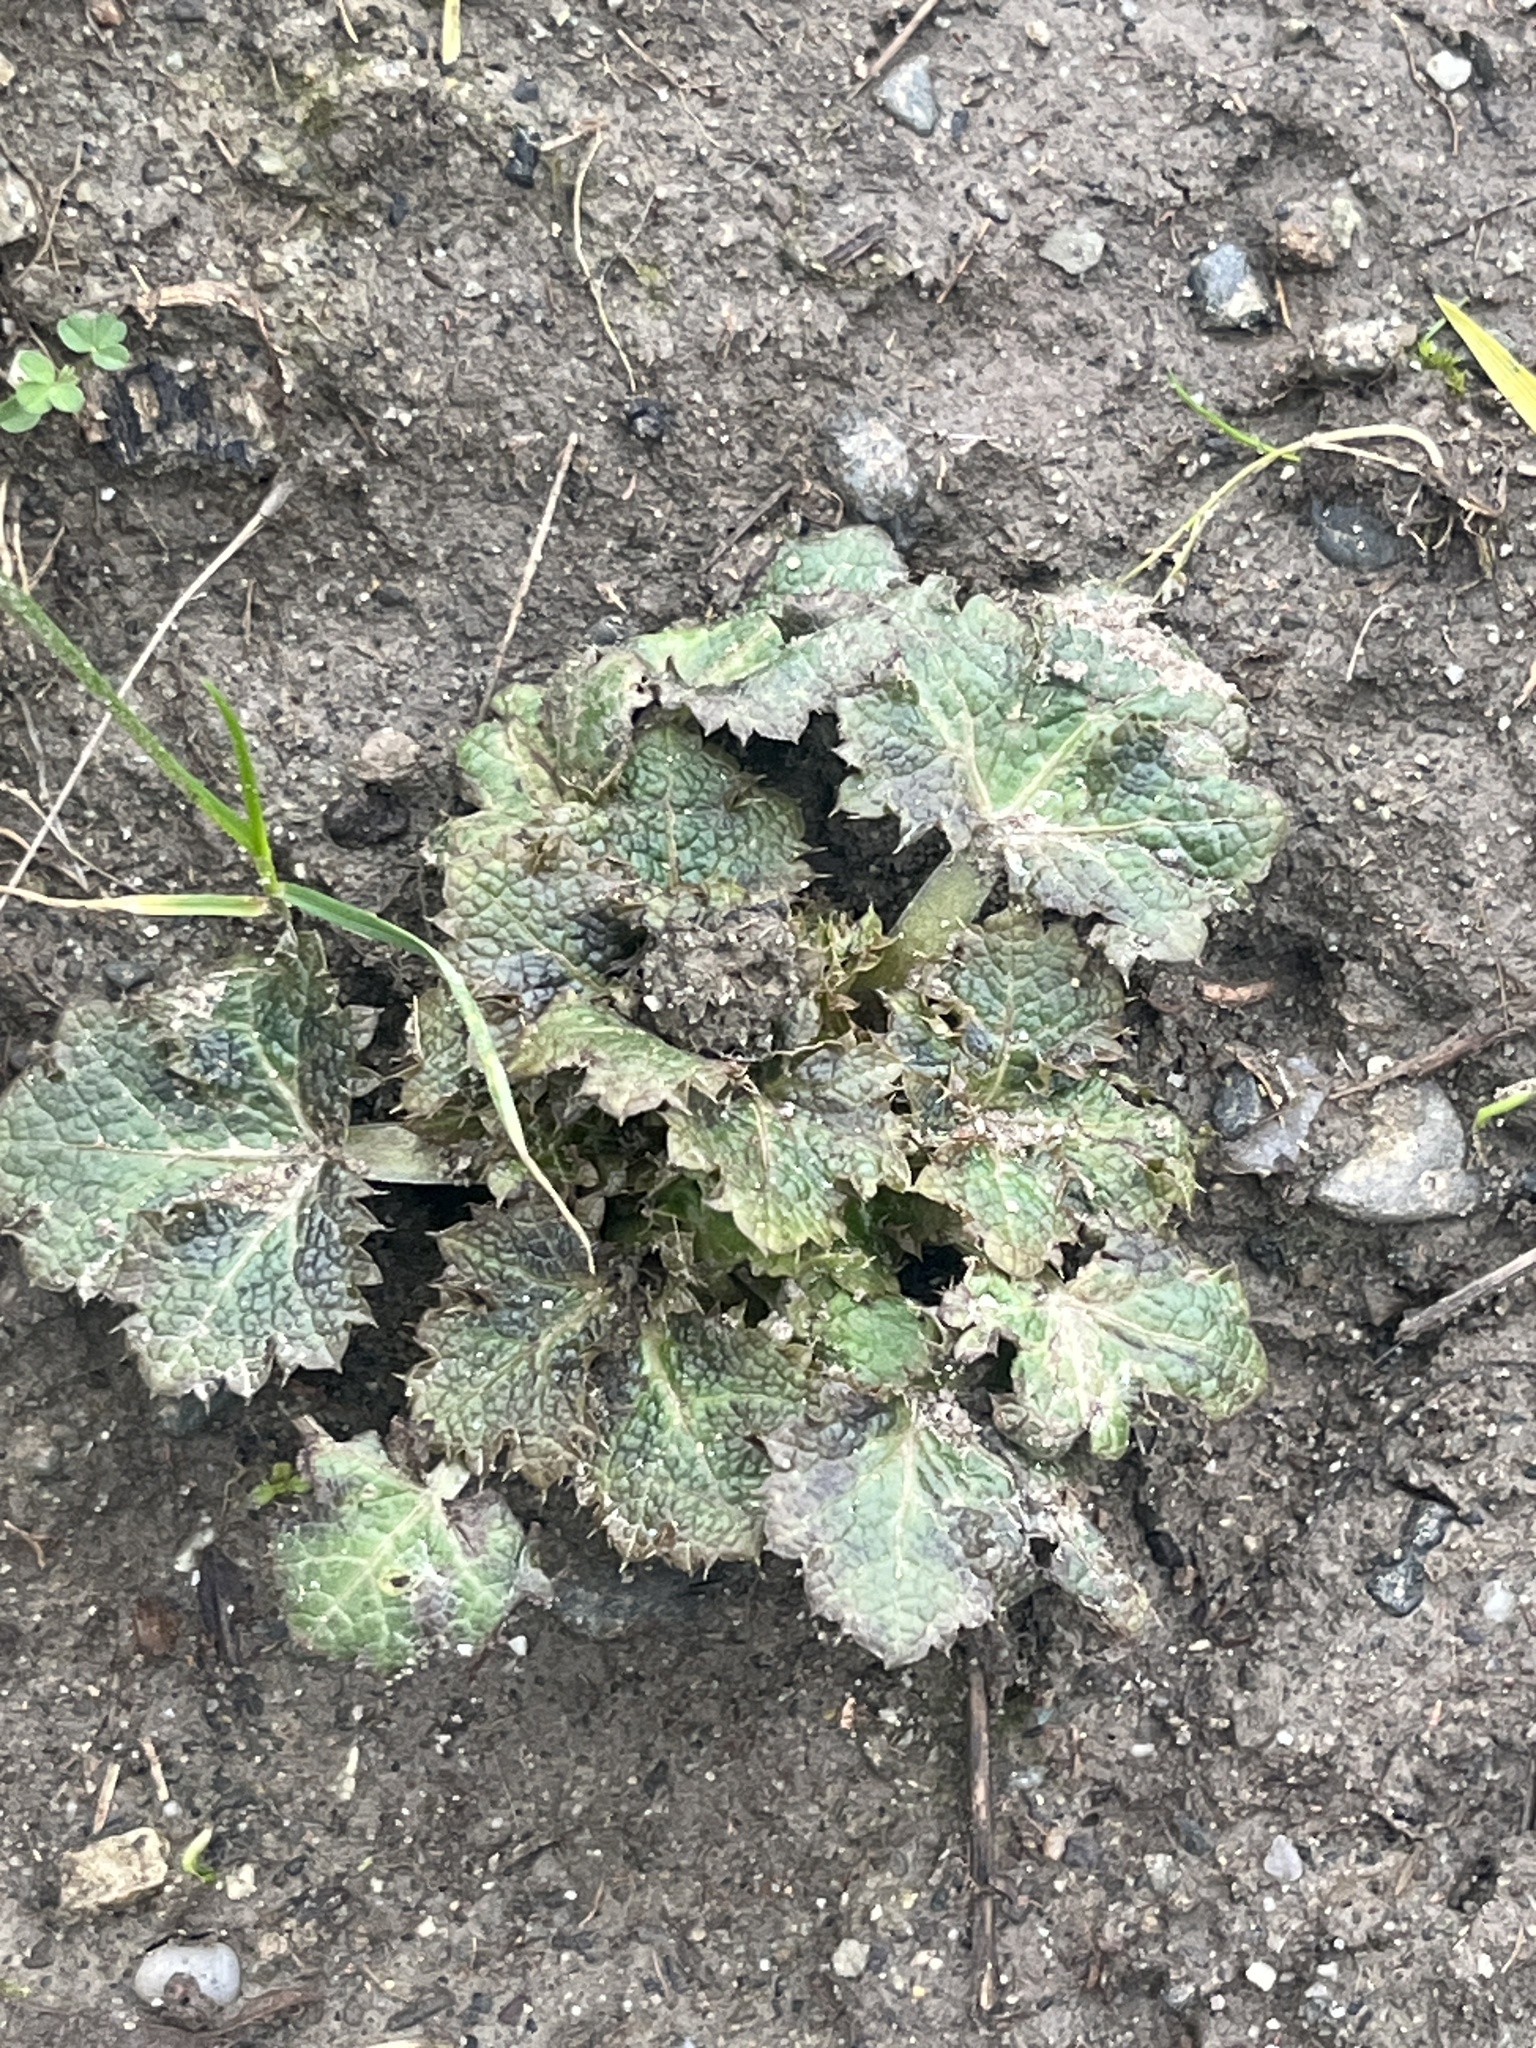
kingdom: Plantae
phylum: Tracheophyta
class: Magnoliopsida
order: Apiales
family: Apiaceae
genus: Sanicula
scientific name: Sanicula crassicaulis
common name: Western snakeroot
